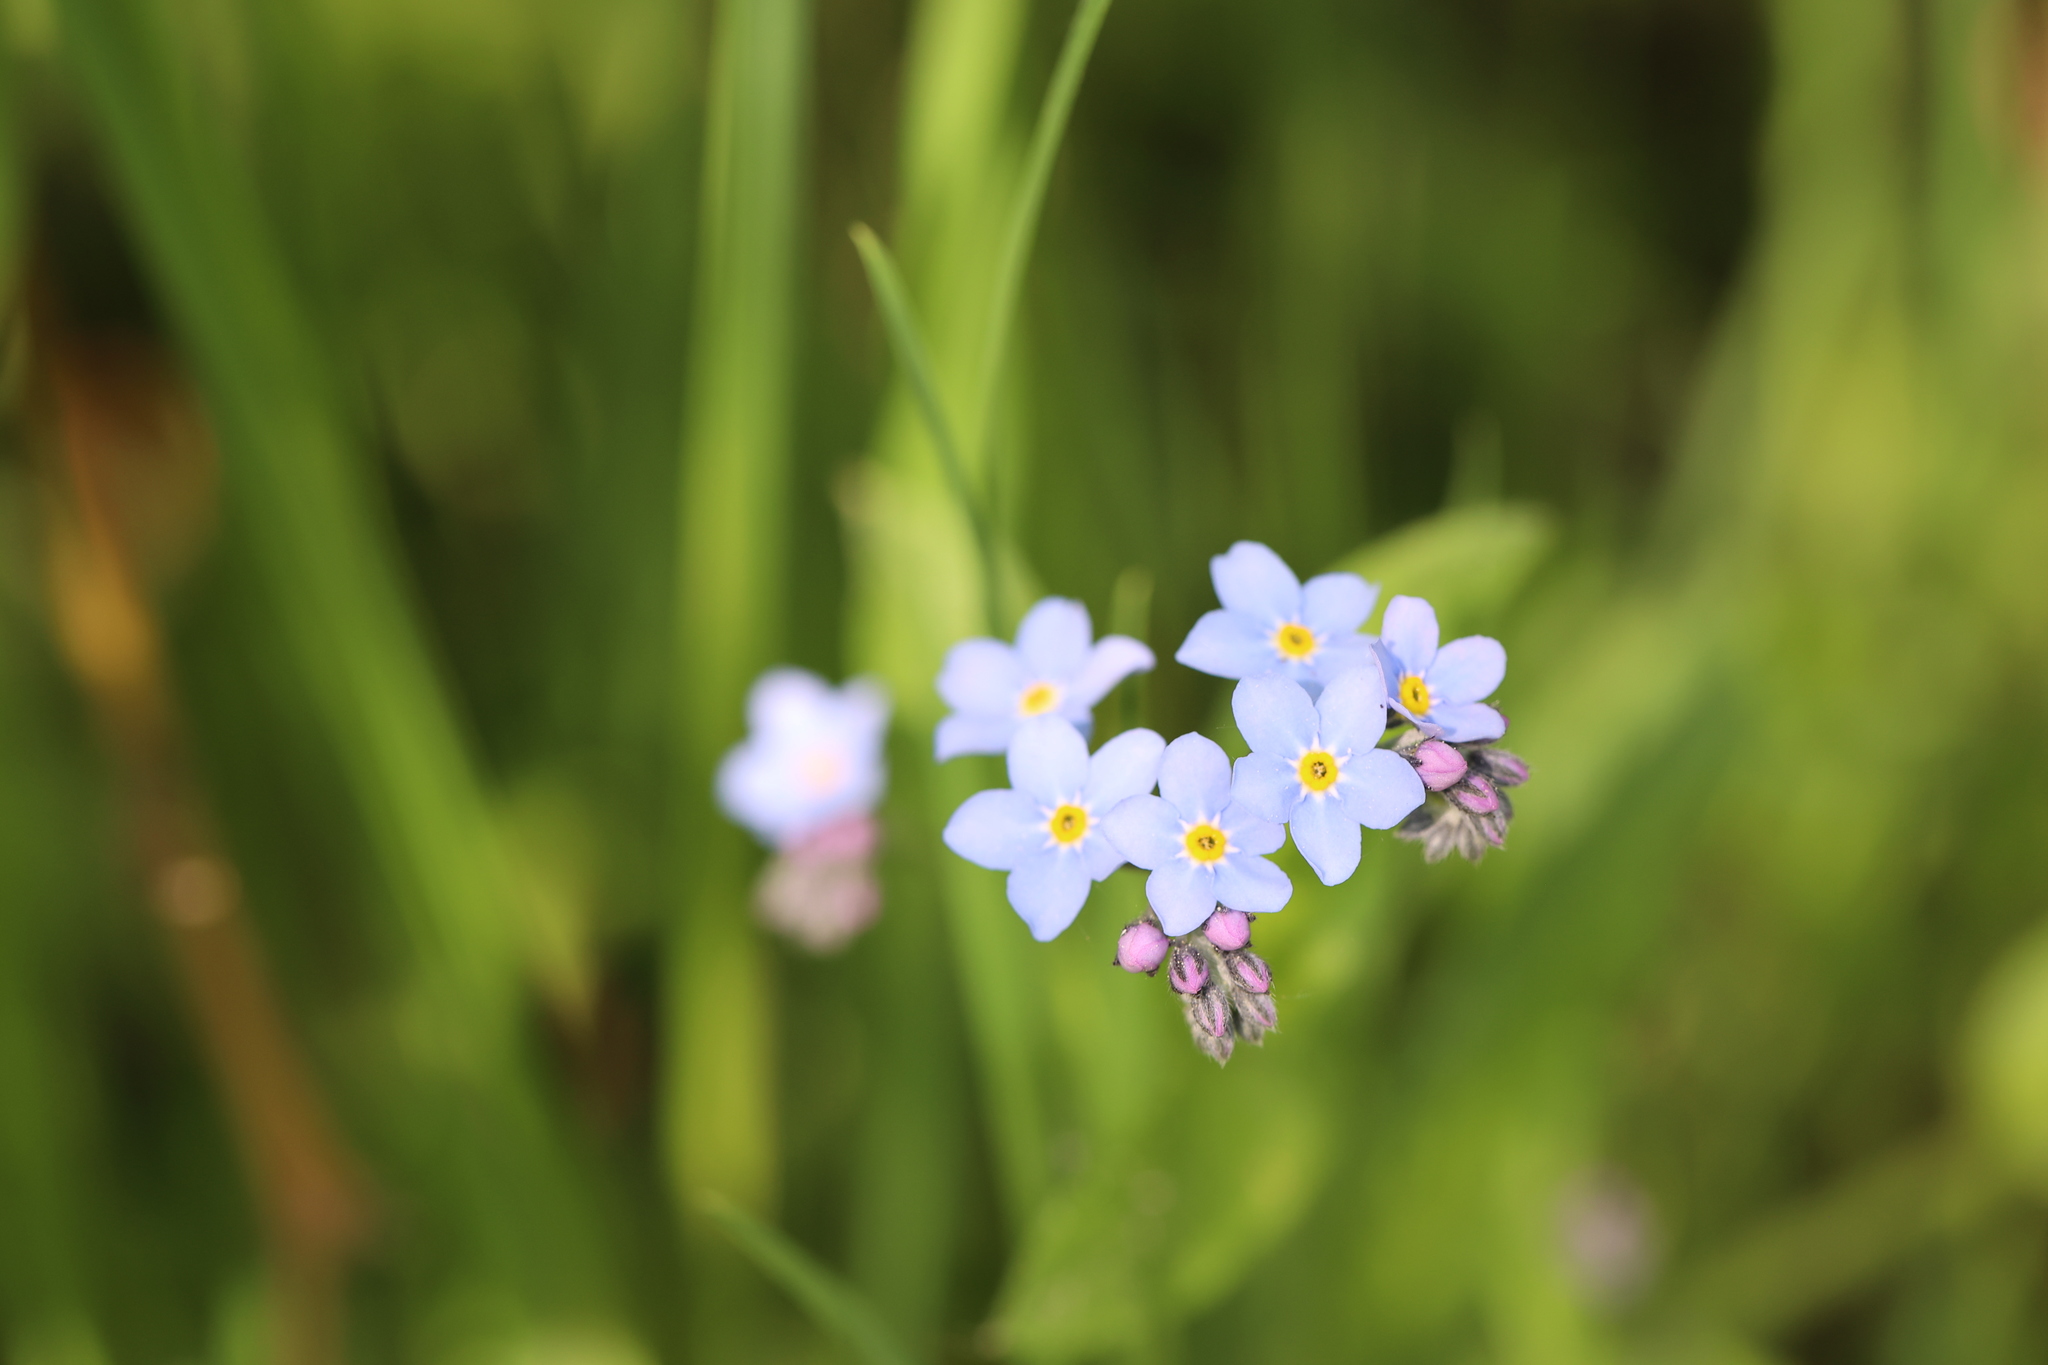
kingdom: Plantae
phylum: Tracheophyta
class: Magnoliopsida
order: Boraginales
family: Boraginaceae
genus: Myosotis
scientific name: Myosotis sylvatica
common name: Wood forget-me-not
